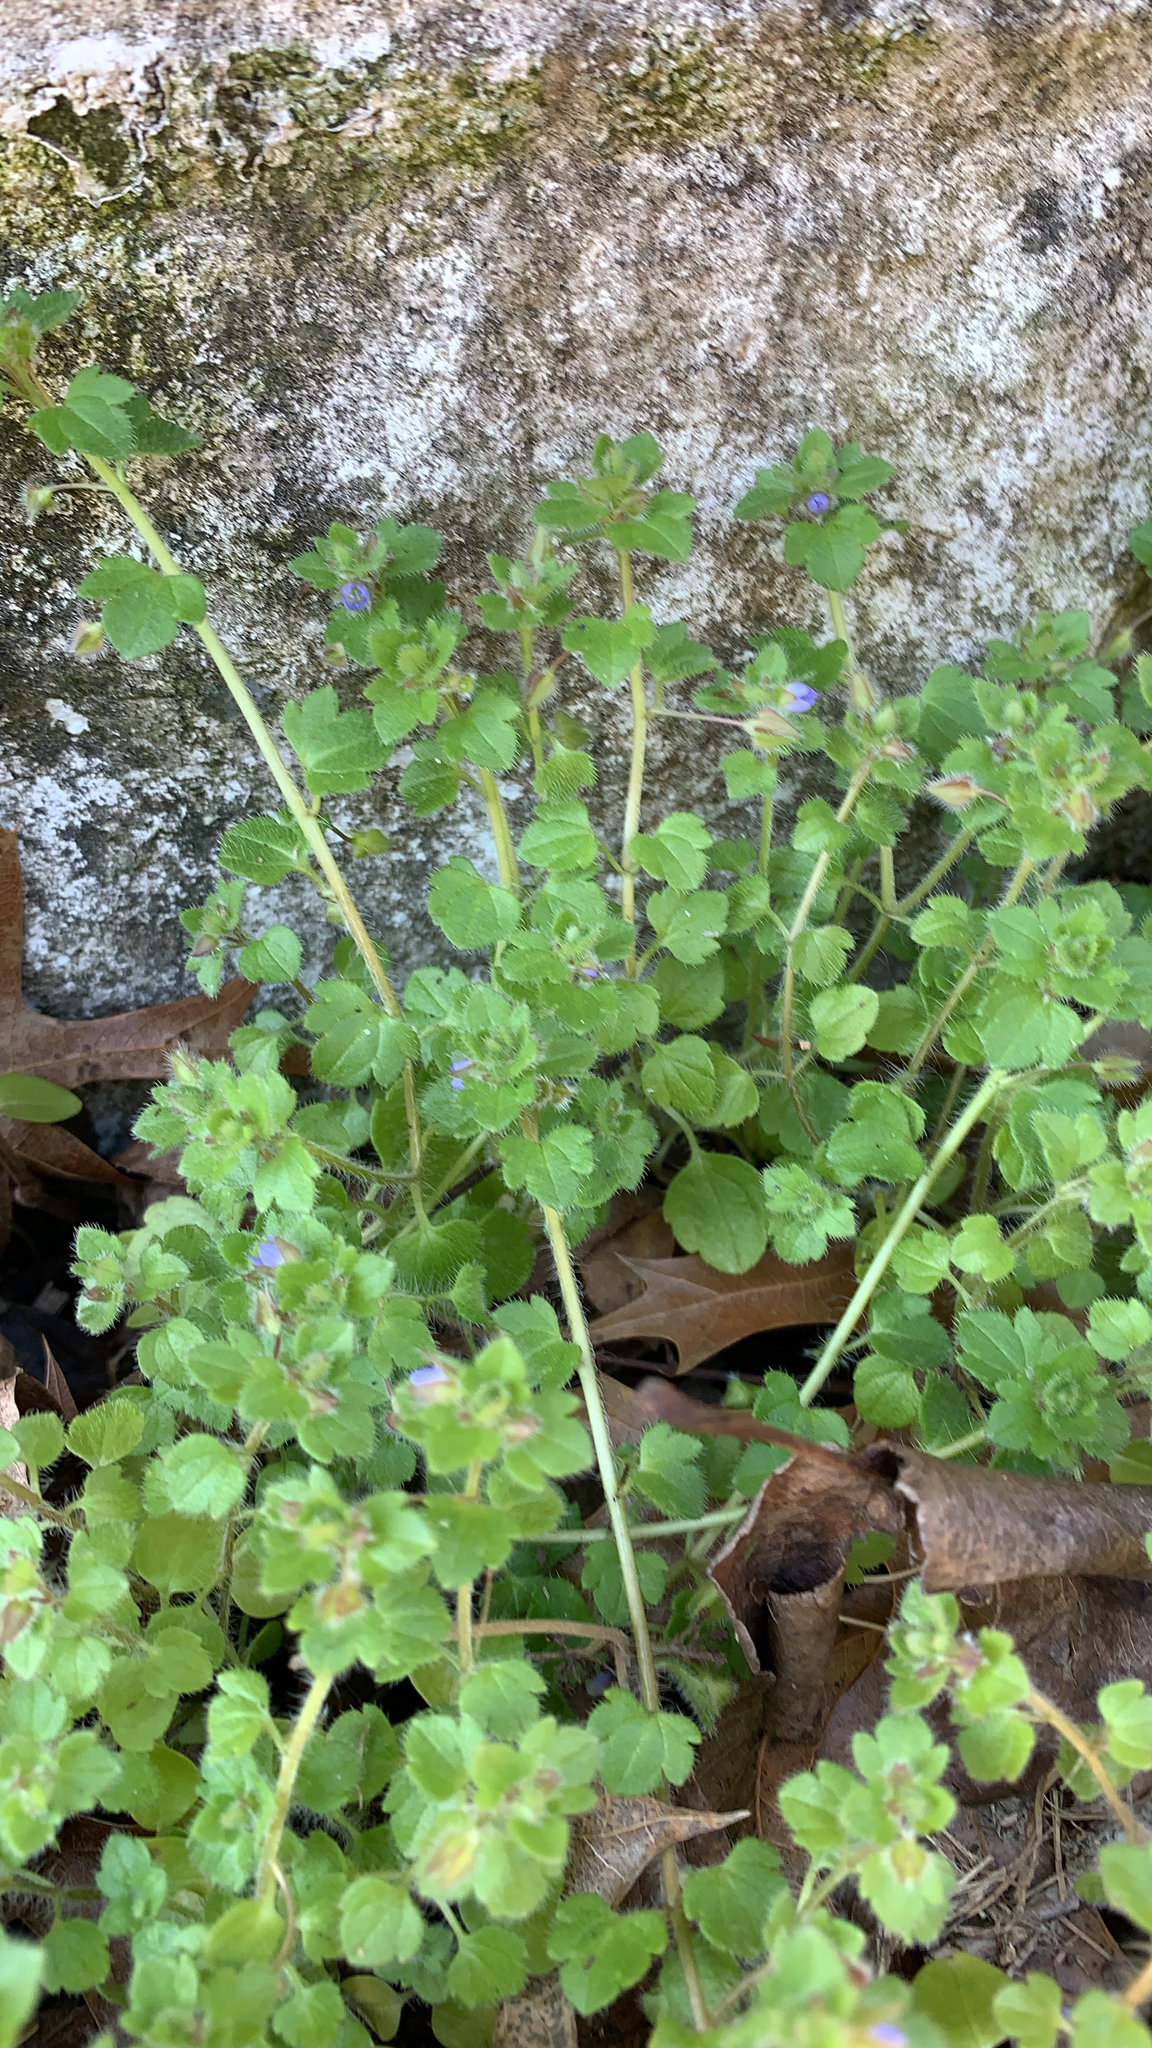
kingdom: Plantae
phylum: Tracheophyta
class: Magnoliopsida
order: Lamiales
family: Plantaginaceae
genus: Veronica
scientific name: Veronica hederifolia
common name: Ivy-leaved speedwell
